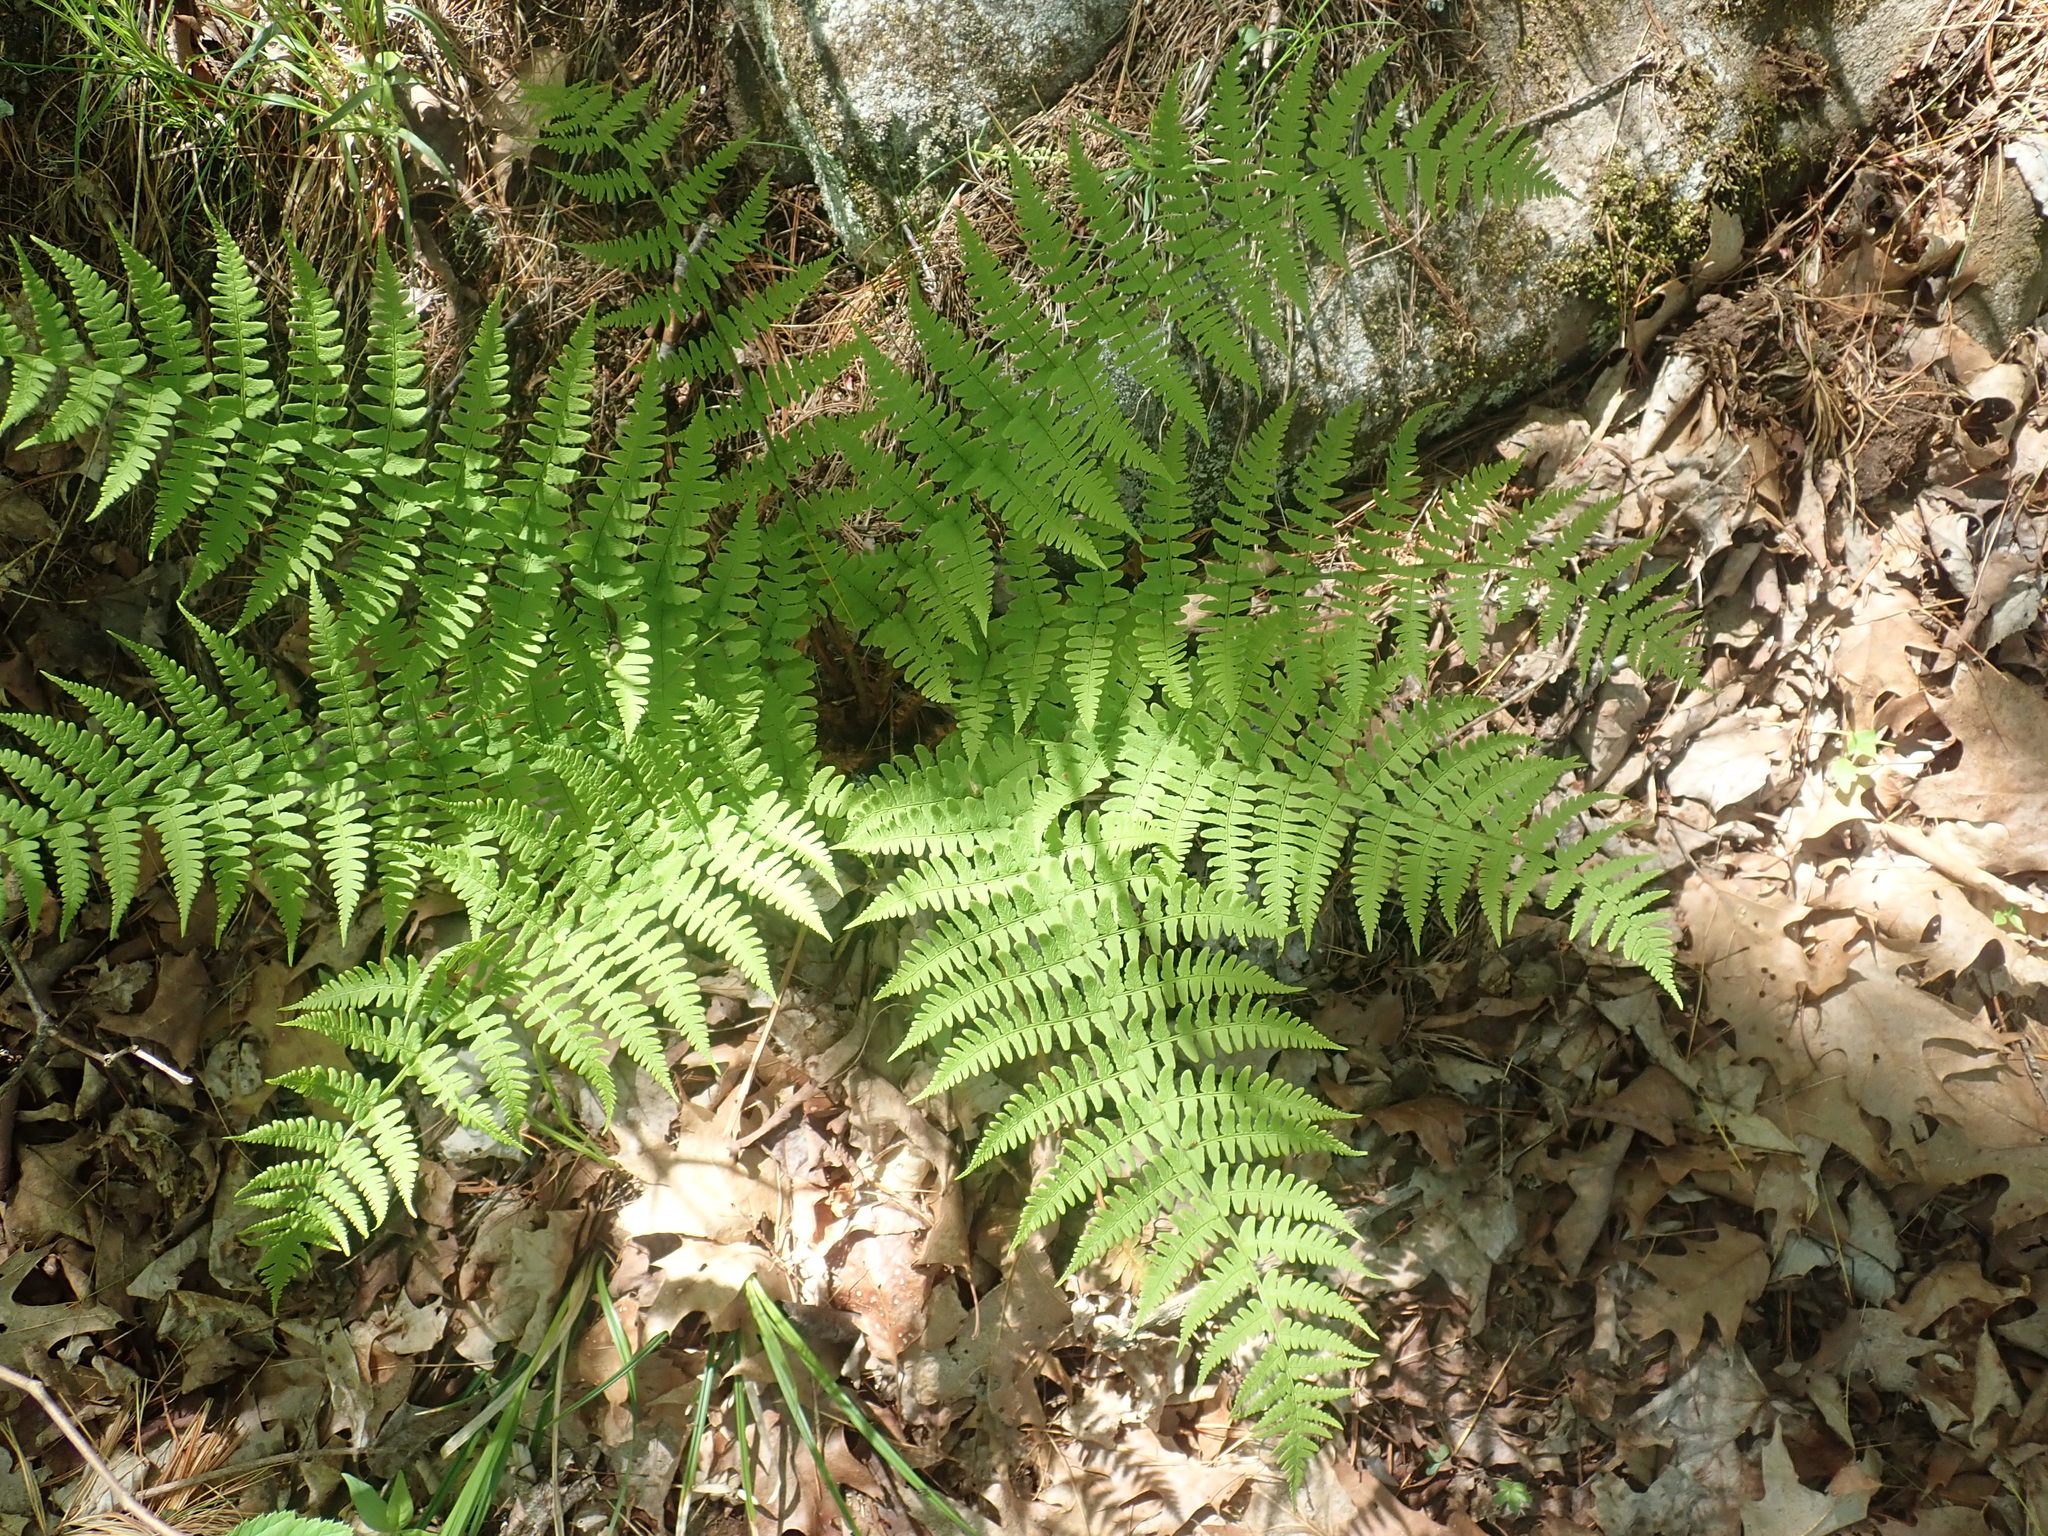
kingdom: Plantae
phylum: Tracheophyta
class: Polypodiopsida
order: Polypodiales
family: Dryopteridaceae
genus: Dryopteris
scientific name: Dryopteris marginalis
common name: Marginal wood fern
